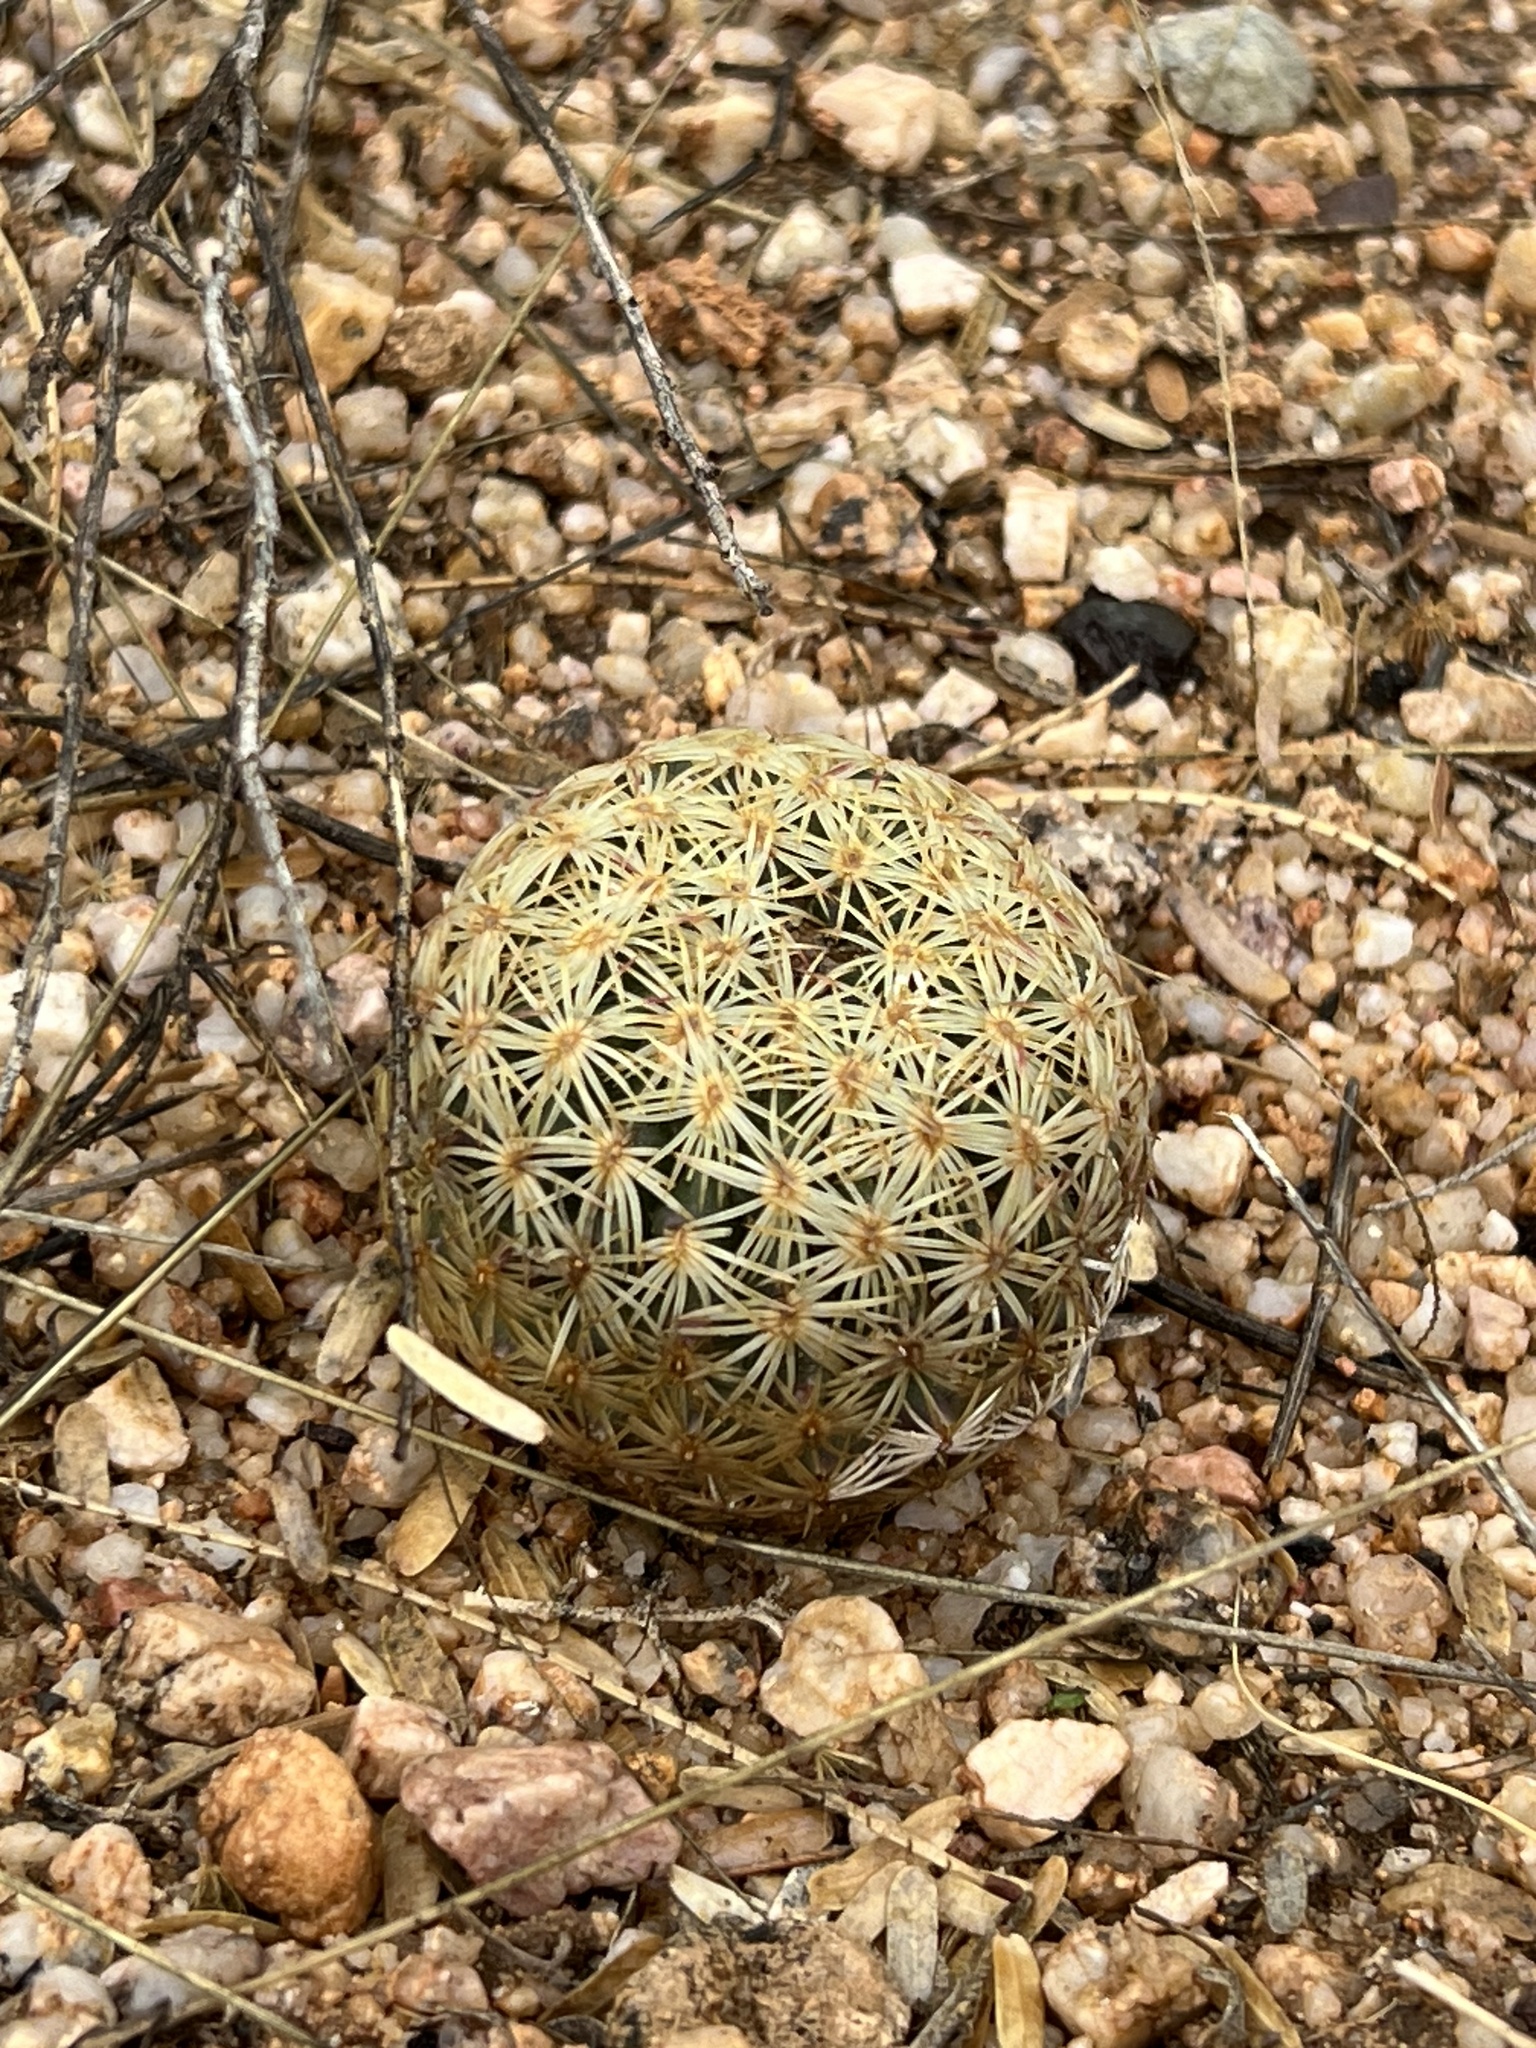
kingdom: Plantae
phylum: Tracheophyta
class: Magnoliopsida
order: Caryophyllales
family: Cactaceae
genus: Sclerocactus
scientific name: Sclerocactus johnsonii
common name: Eight-spine fishhook cactus
